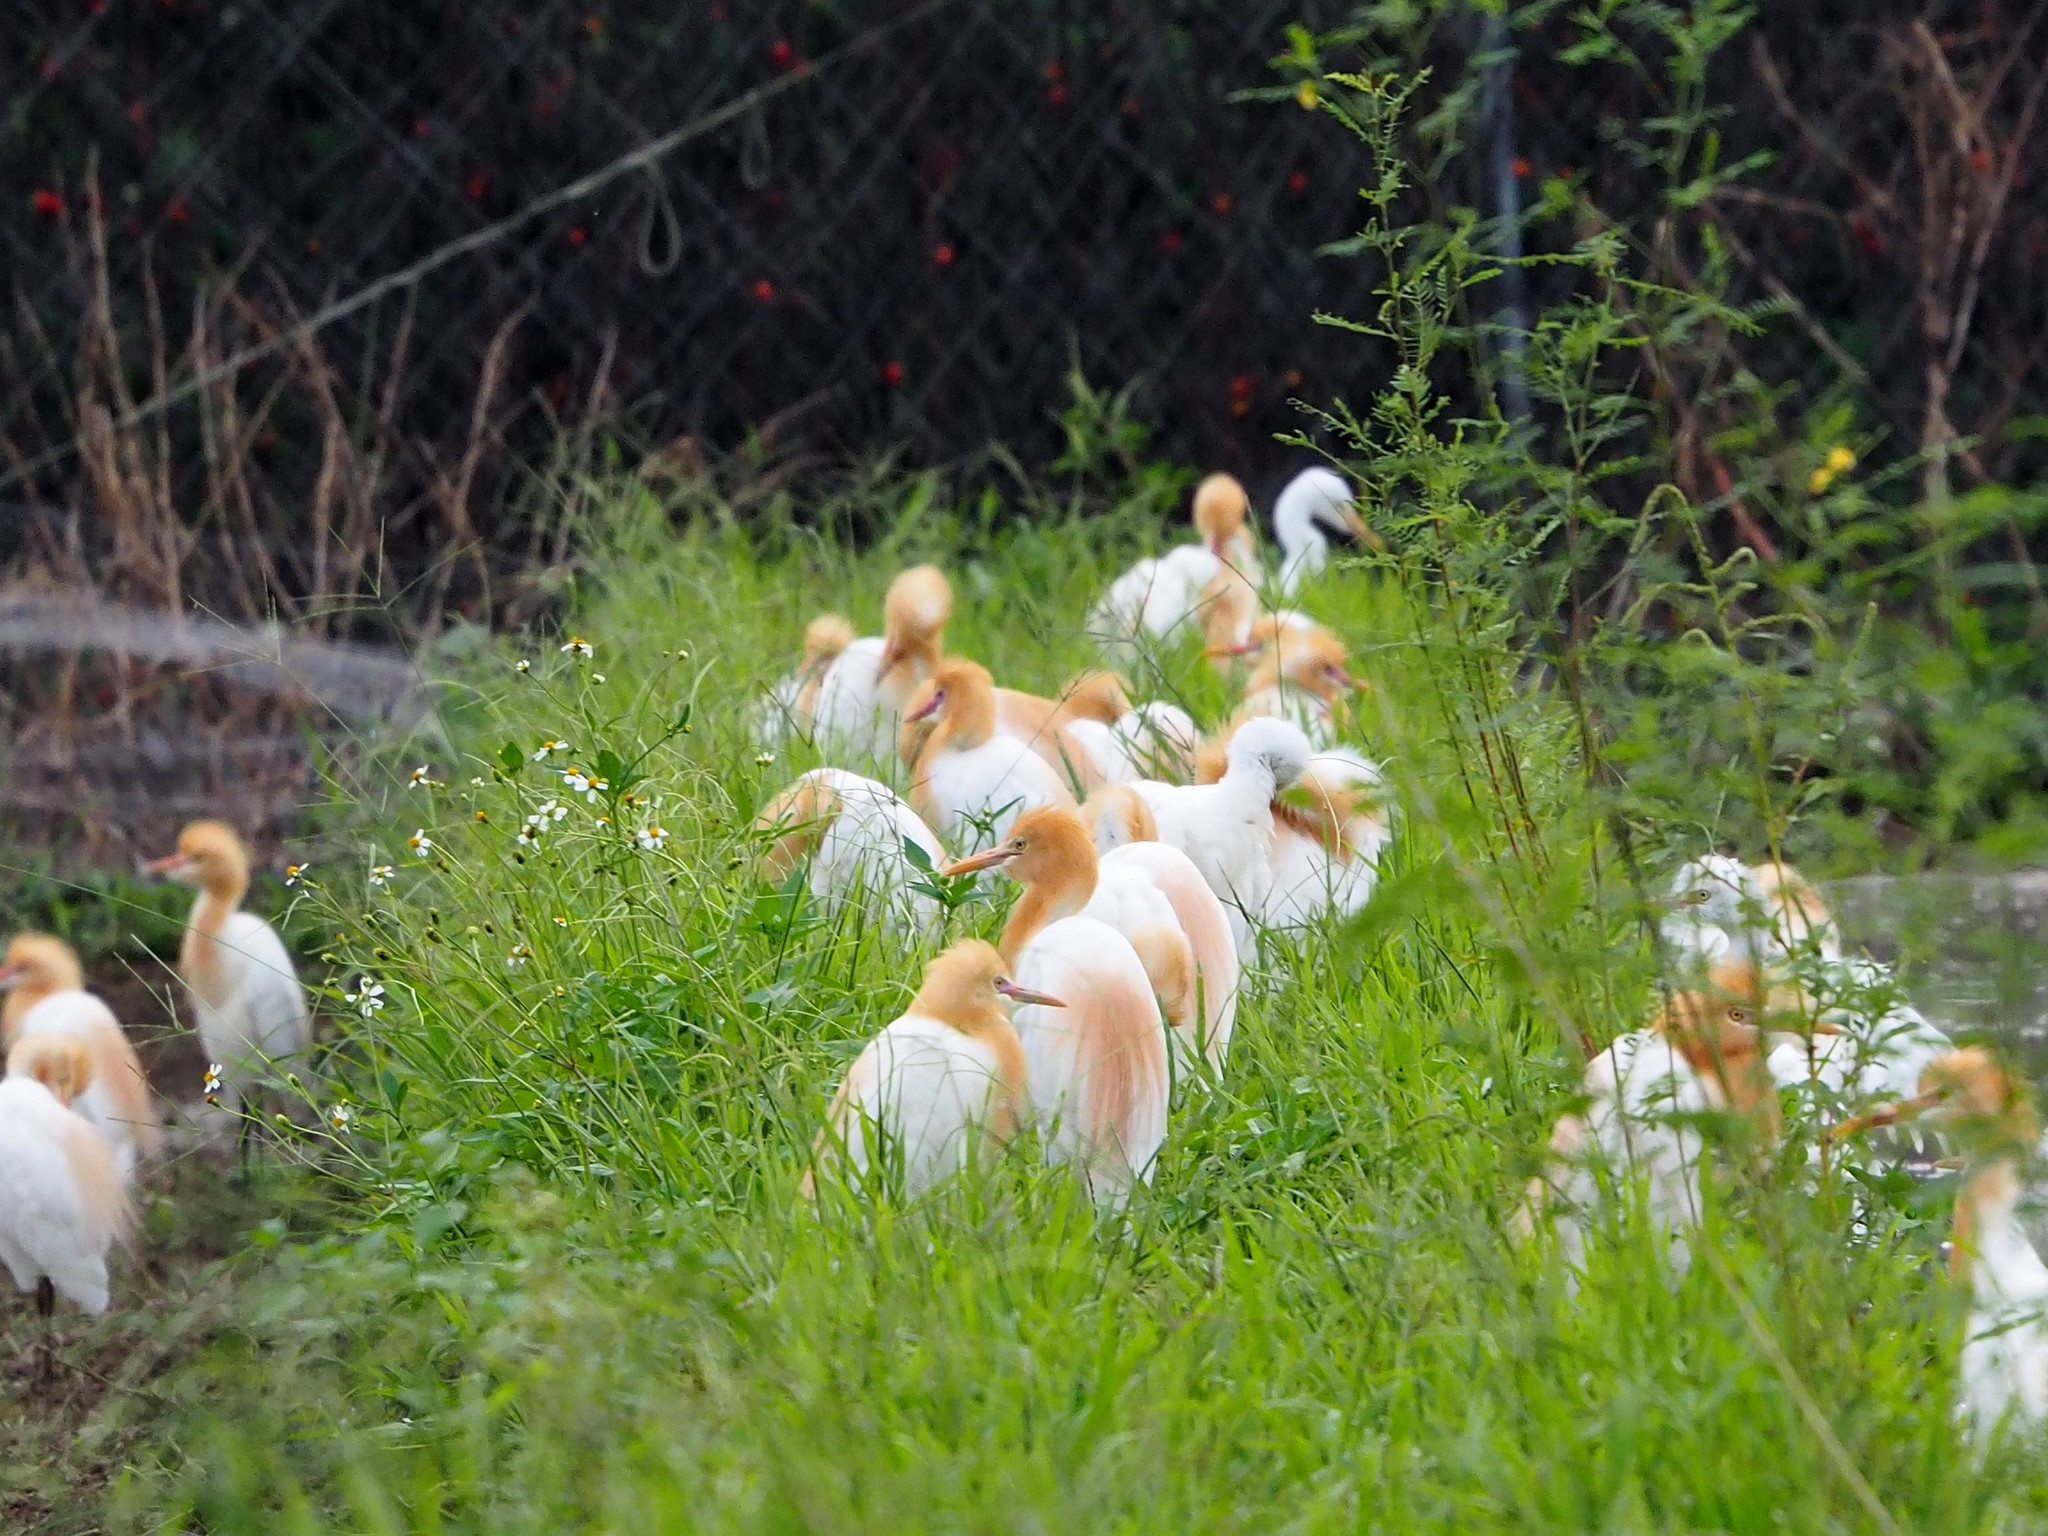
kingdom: Animalia
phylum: Chordata
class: Aves
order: Pelecaniformes
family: Ardeidae
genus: Bubulcus
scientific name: Bubulcus coromandus
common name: Eastern cattle egret
